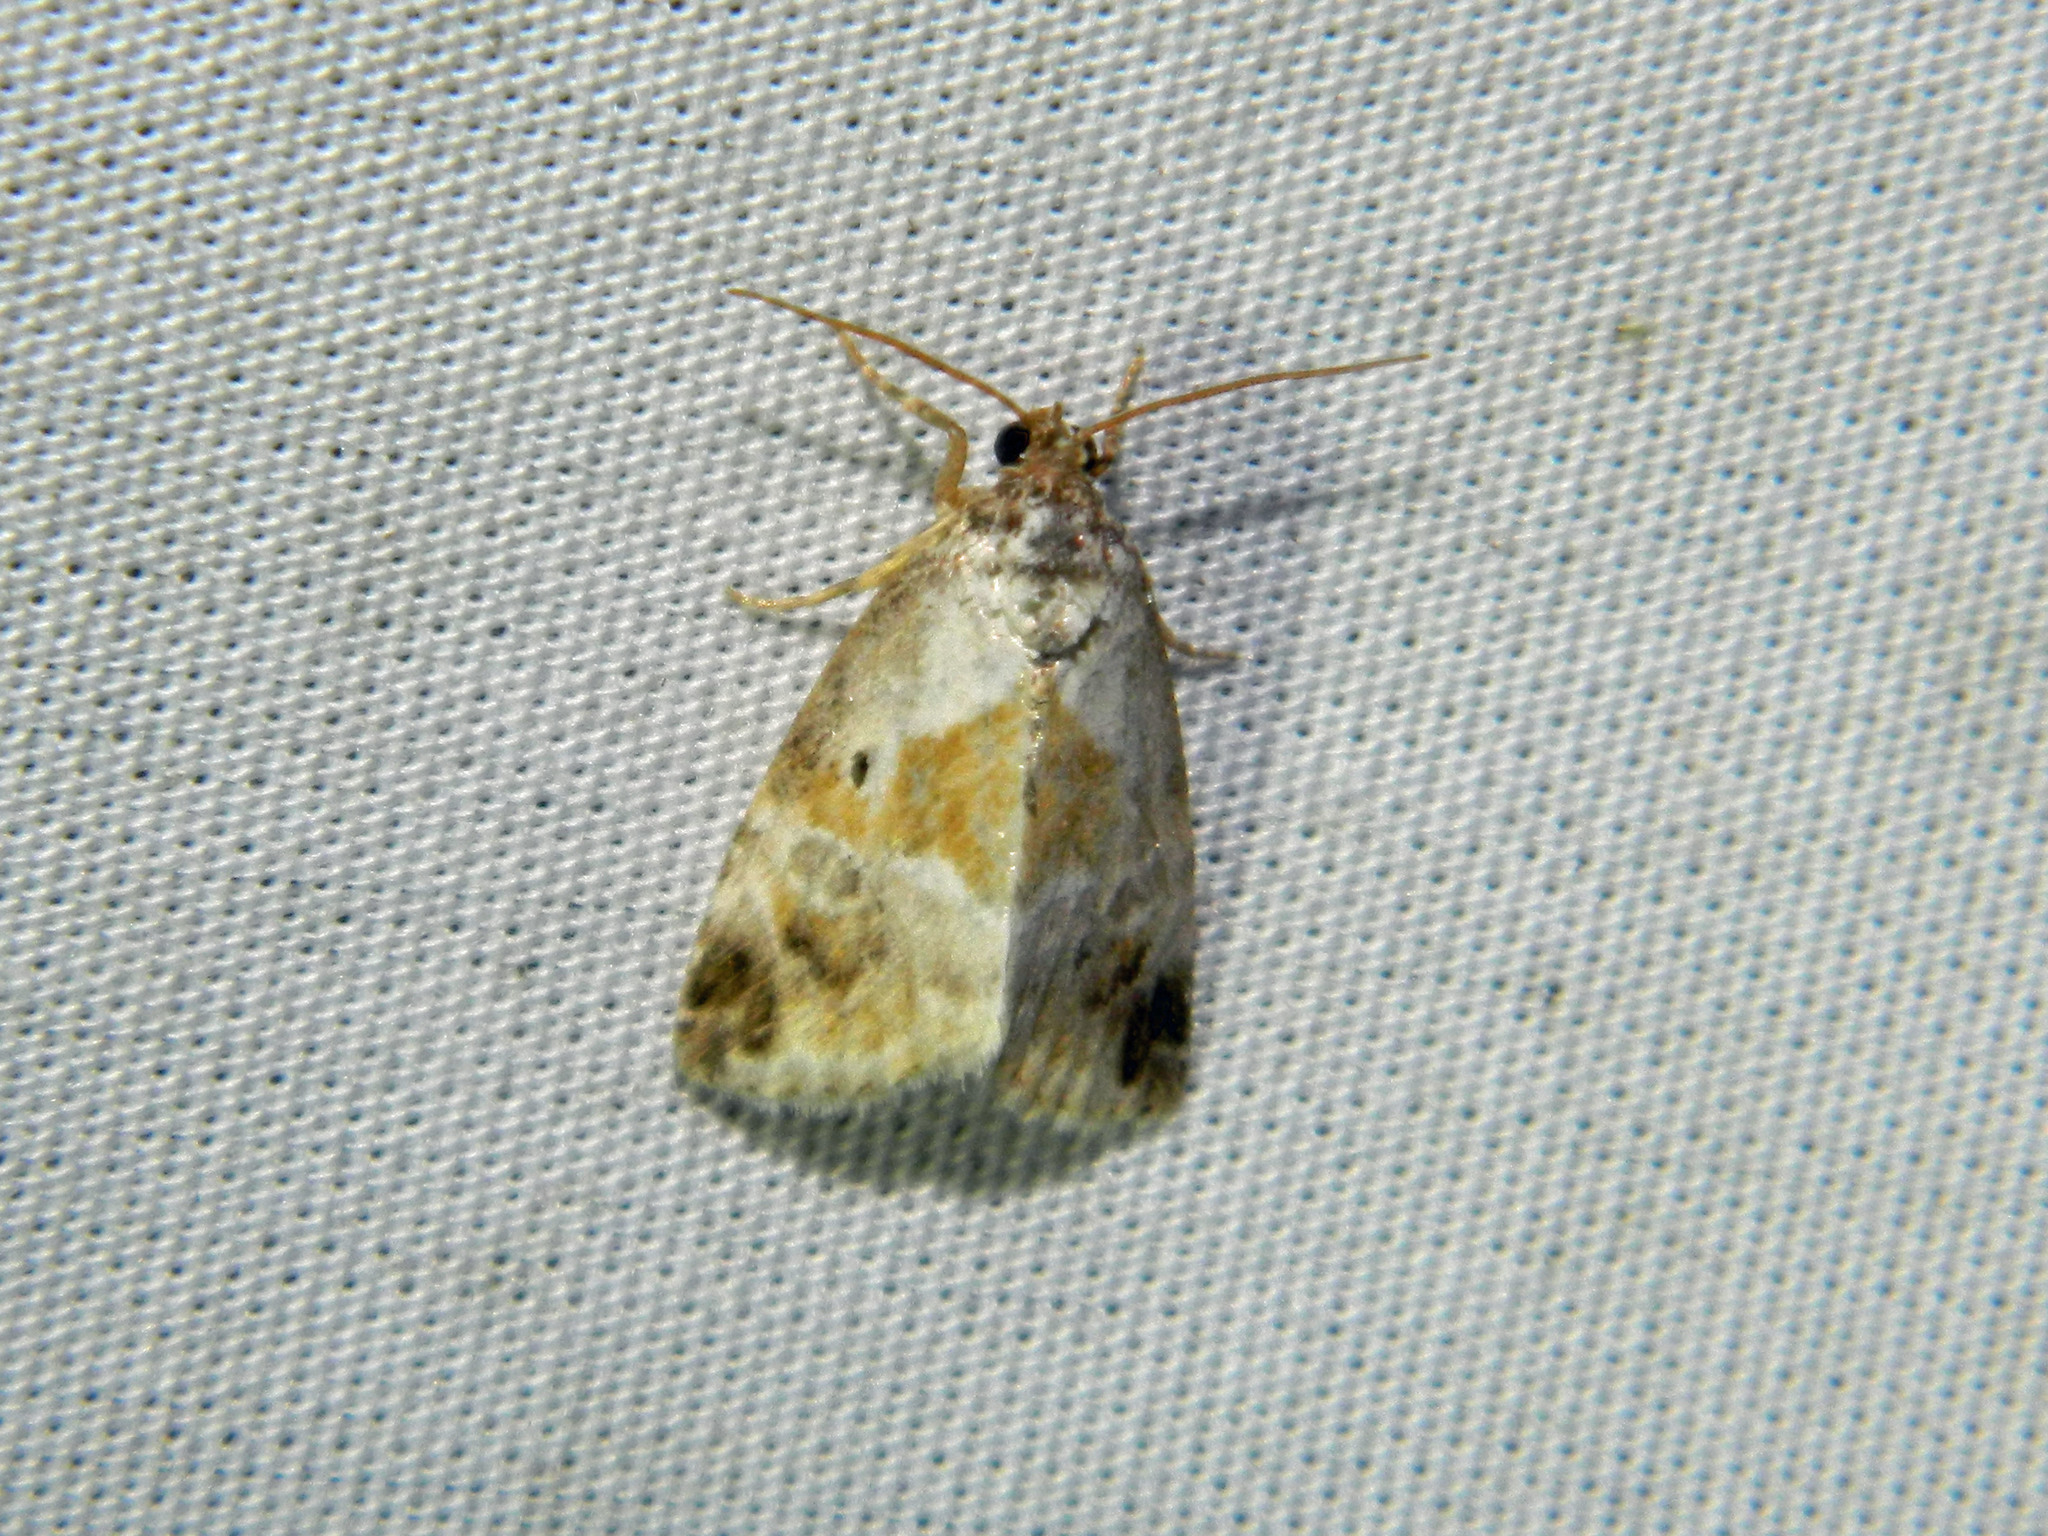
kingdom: Animalia
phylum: Arthropoda
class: Insecta
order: Lepidoptera
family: Noctuidae
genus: Maliattha
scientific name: Maliattha synochitis
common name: Black-dotted glyph
